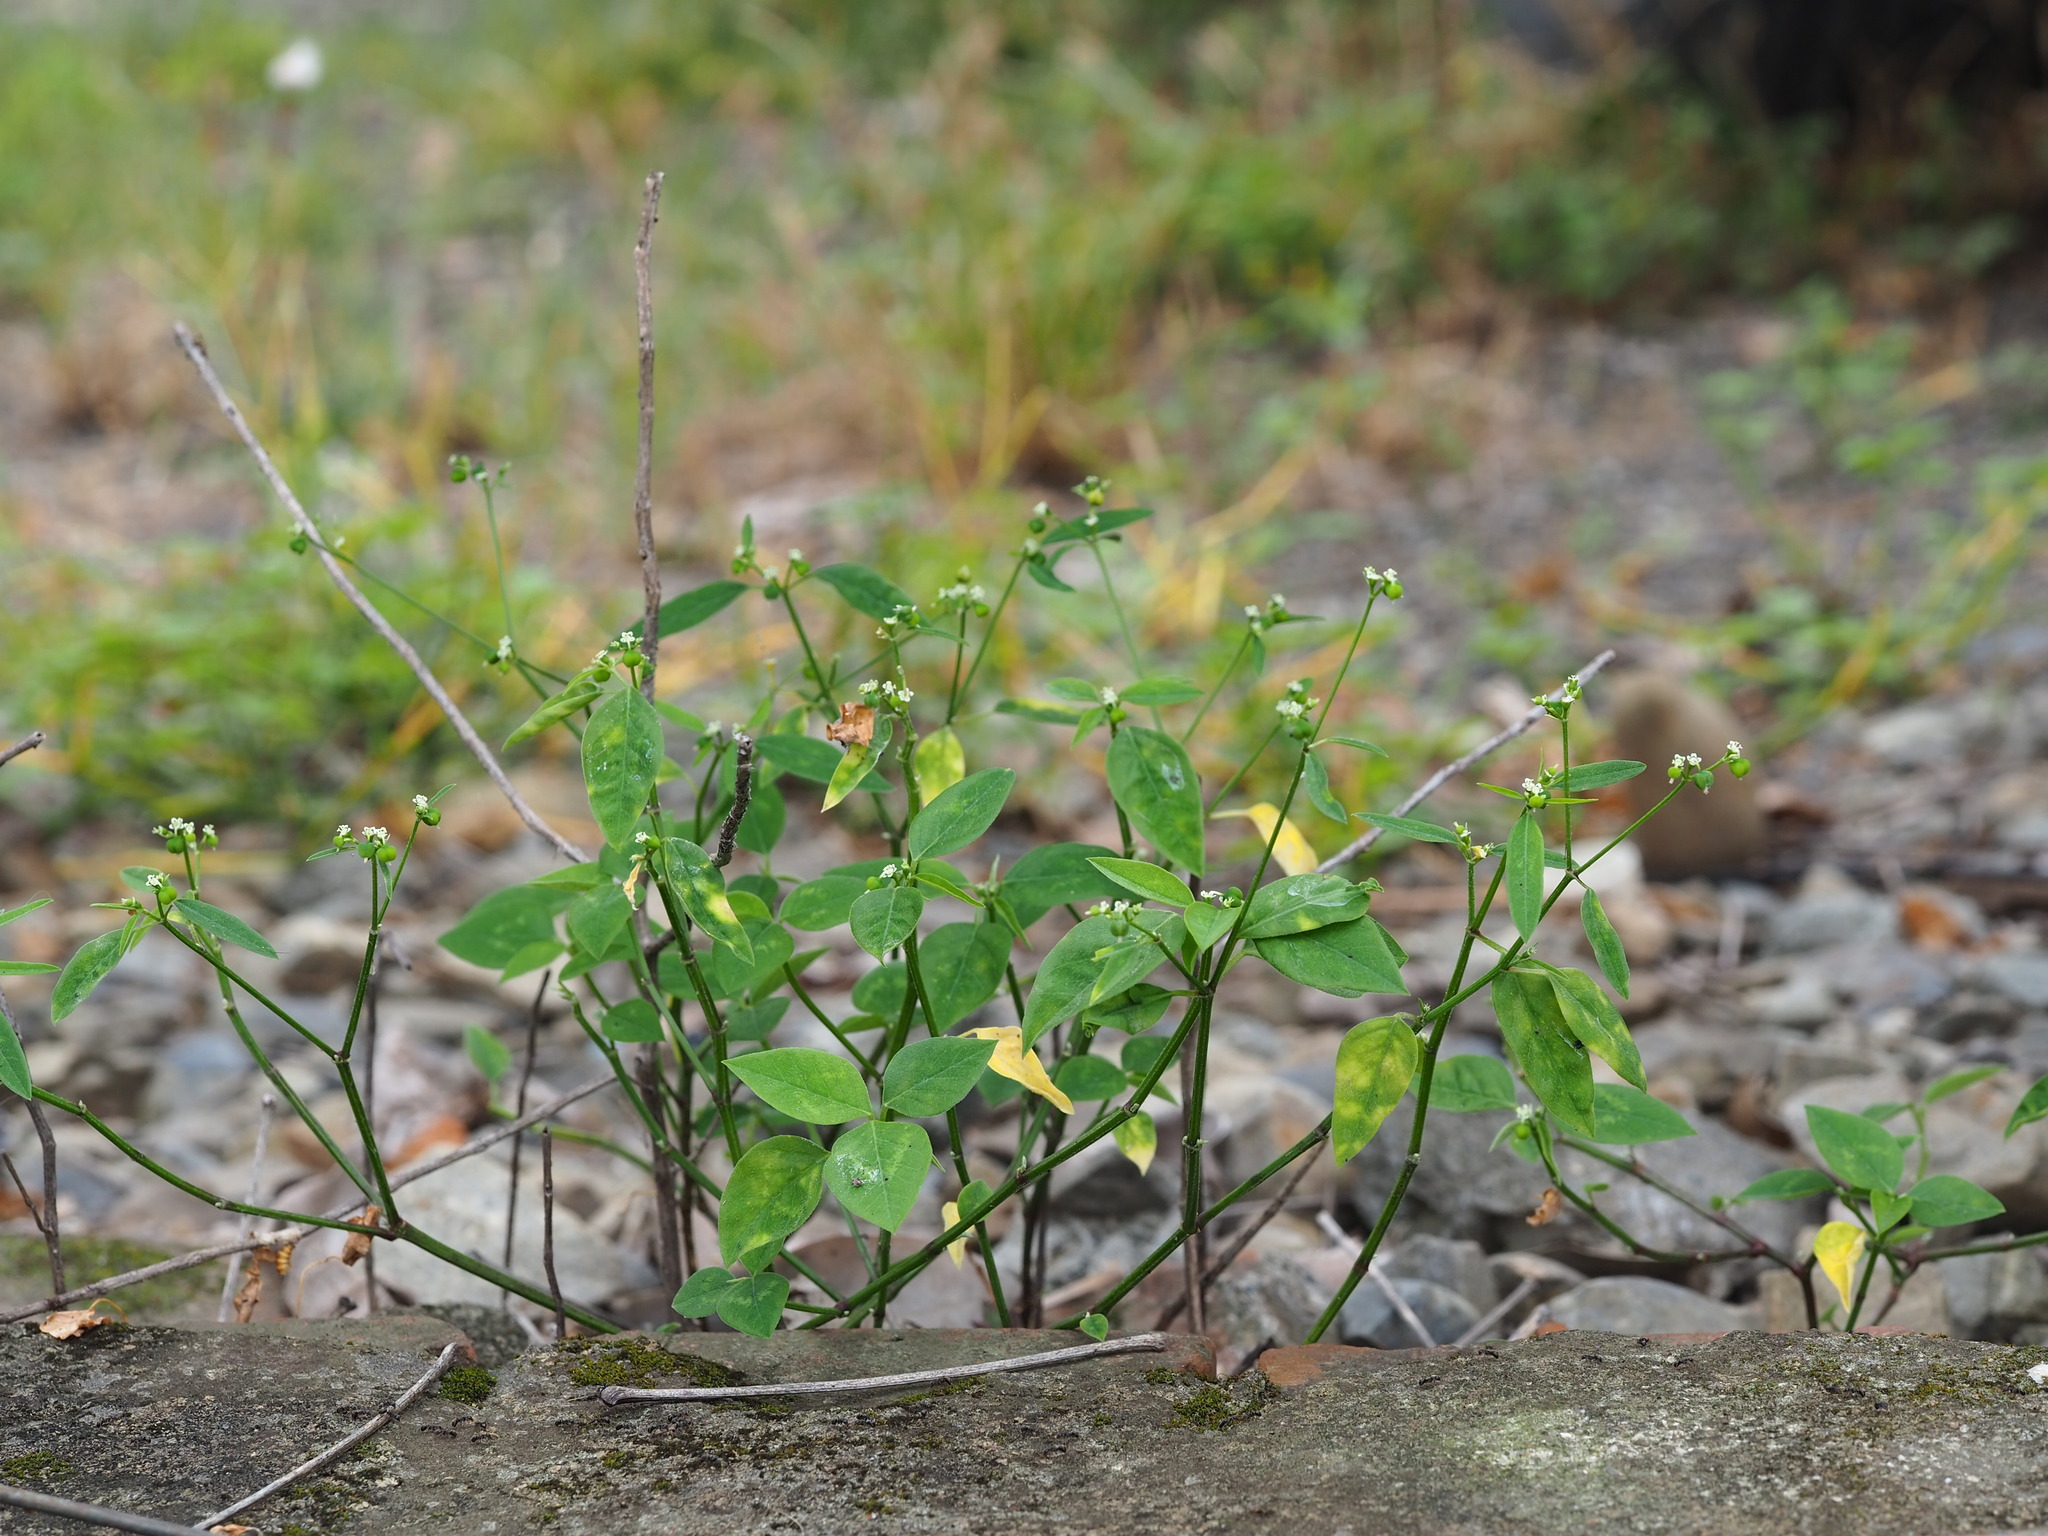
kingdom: Plantae
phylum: Tracheophyta
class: Magnoliopsida
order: Malpighiales
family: Euphorbiaceae
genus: Euphorbia
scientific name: Euphorbia graminea
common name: Grassleaf spurge
